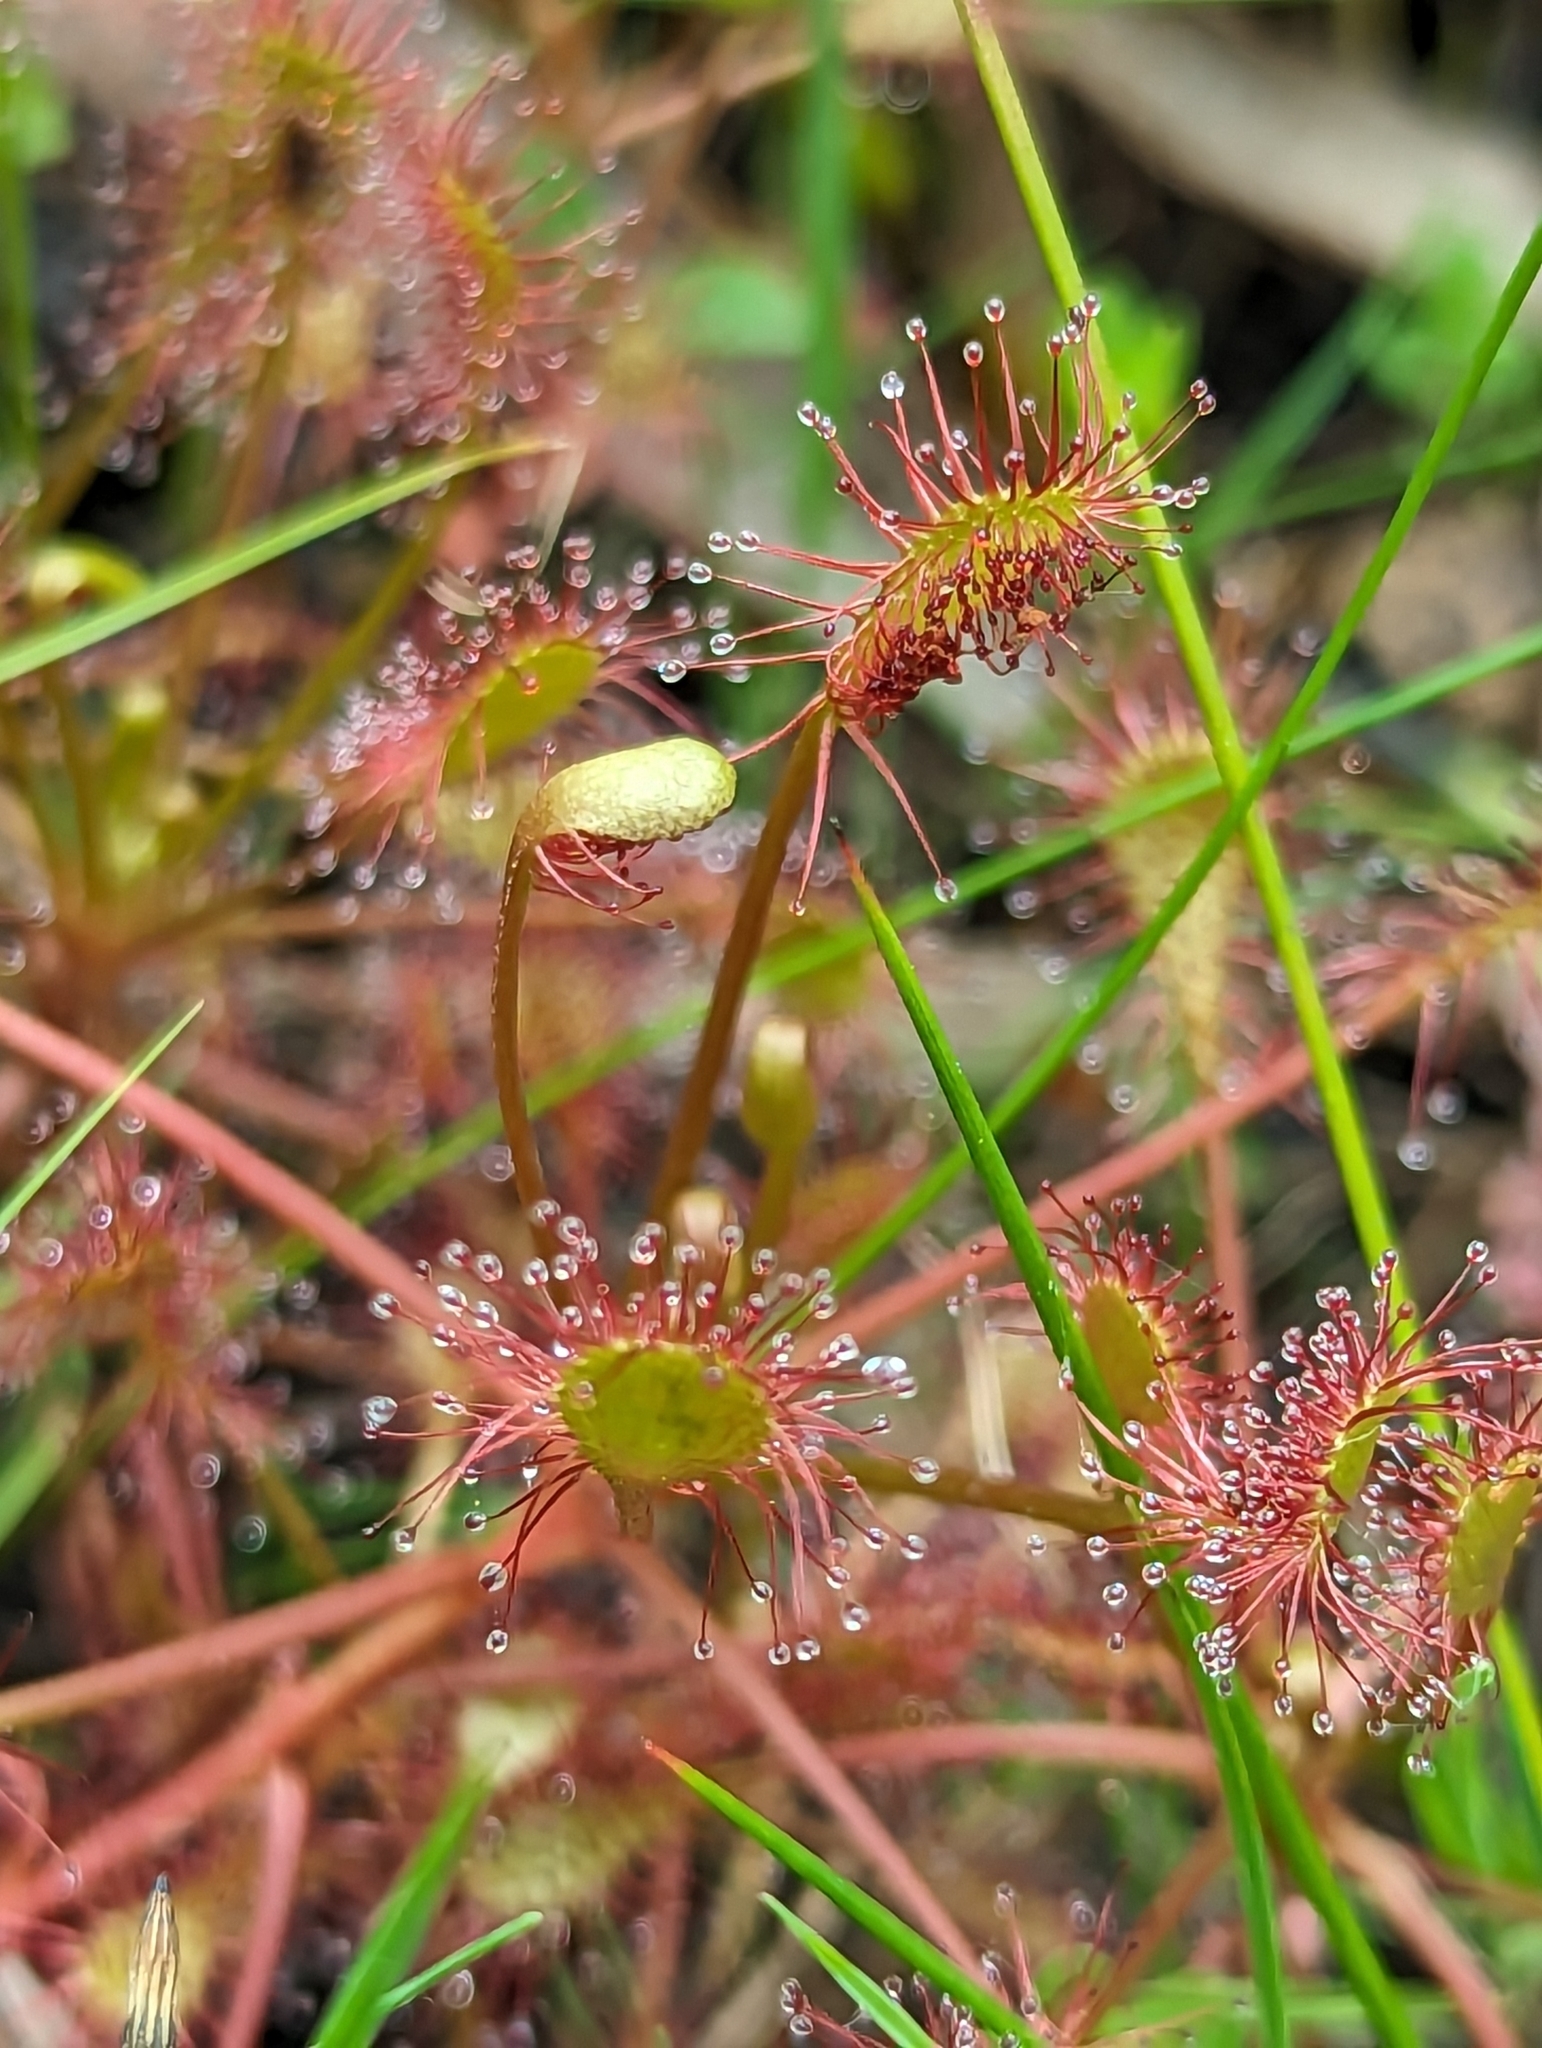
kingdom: Plantae
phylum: Tracheophyta
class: Magnoliopsida
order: Caryophyllales
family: Droseraceae
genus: Drosera
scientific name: Drosera intermedia
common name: Oblong-leaved sundew
